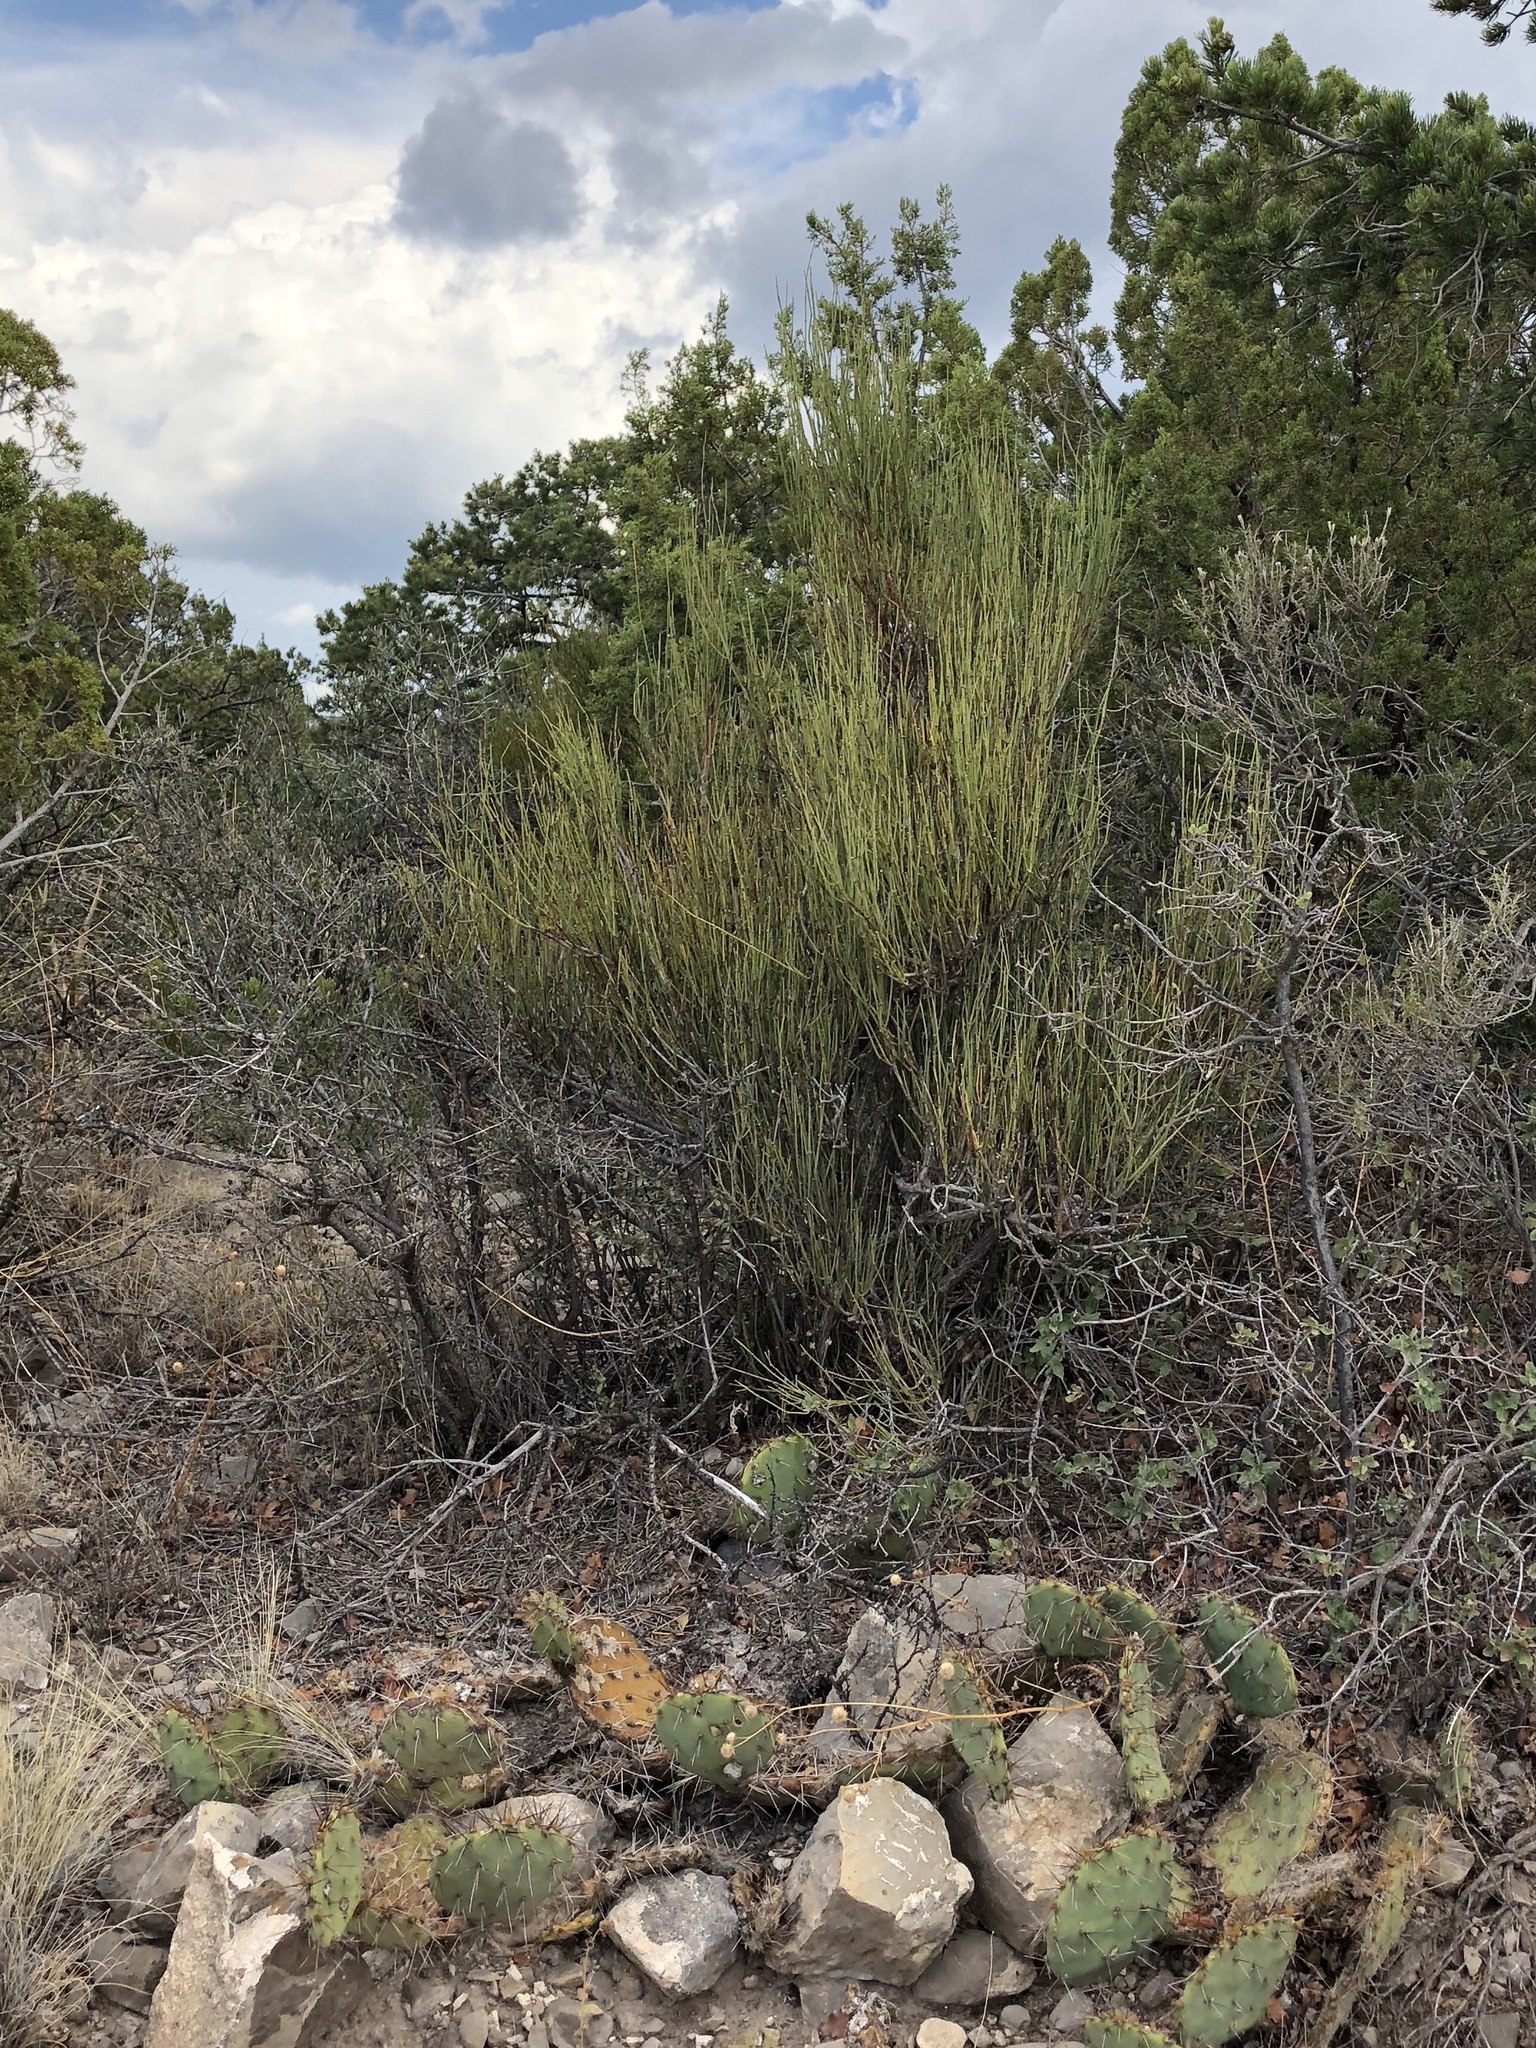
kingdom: Plantae
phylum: Tracheophyta
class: Gnetopsida
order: Ephedrales
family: Ephedraceae
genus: Ephedra
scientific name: Ephedra viridis
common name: Green ephedra
